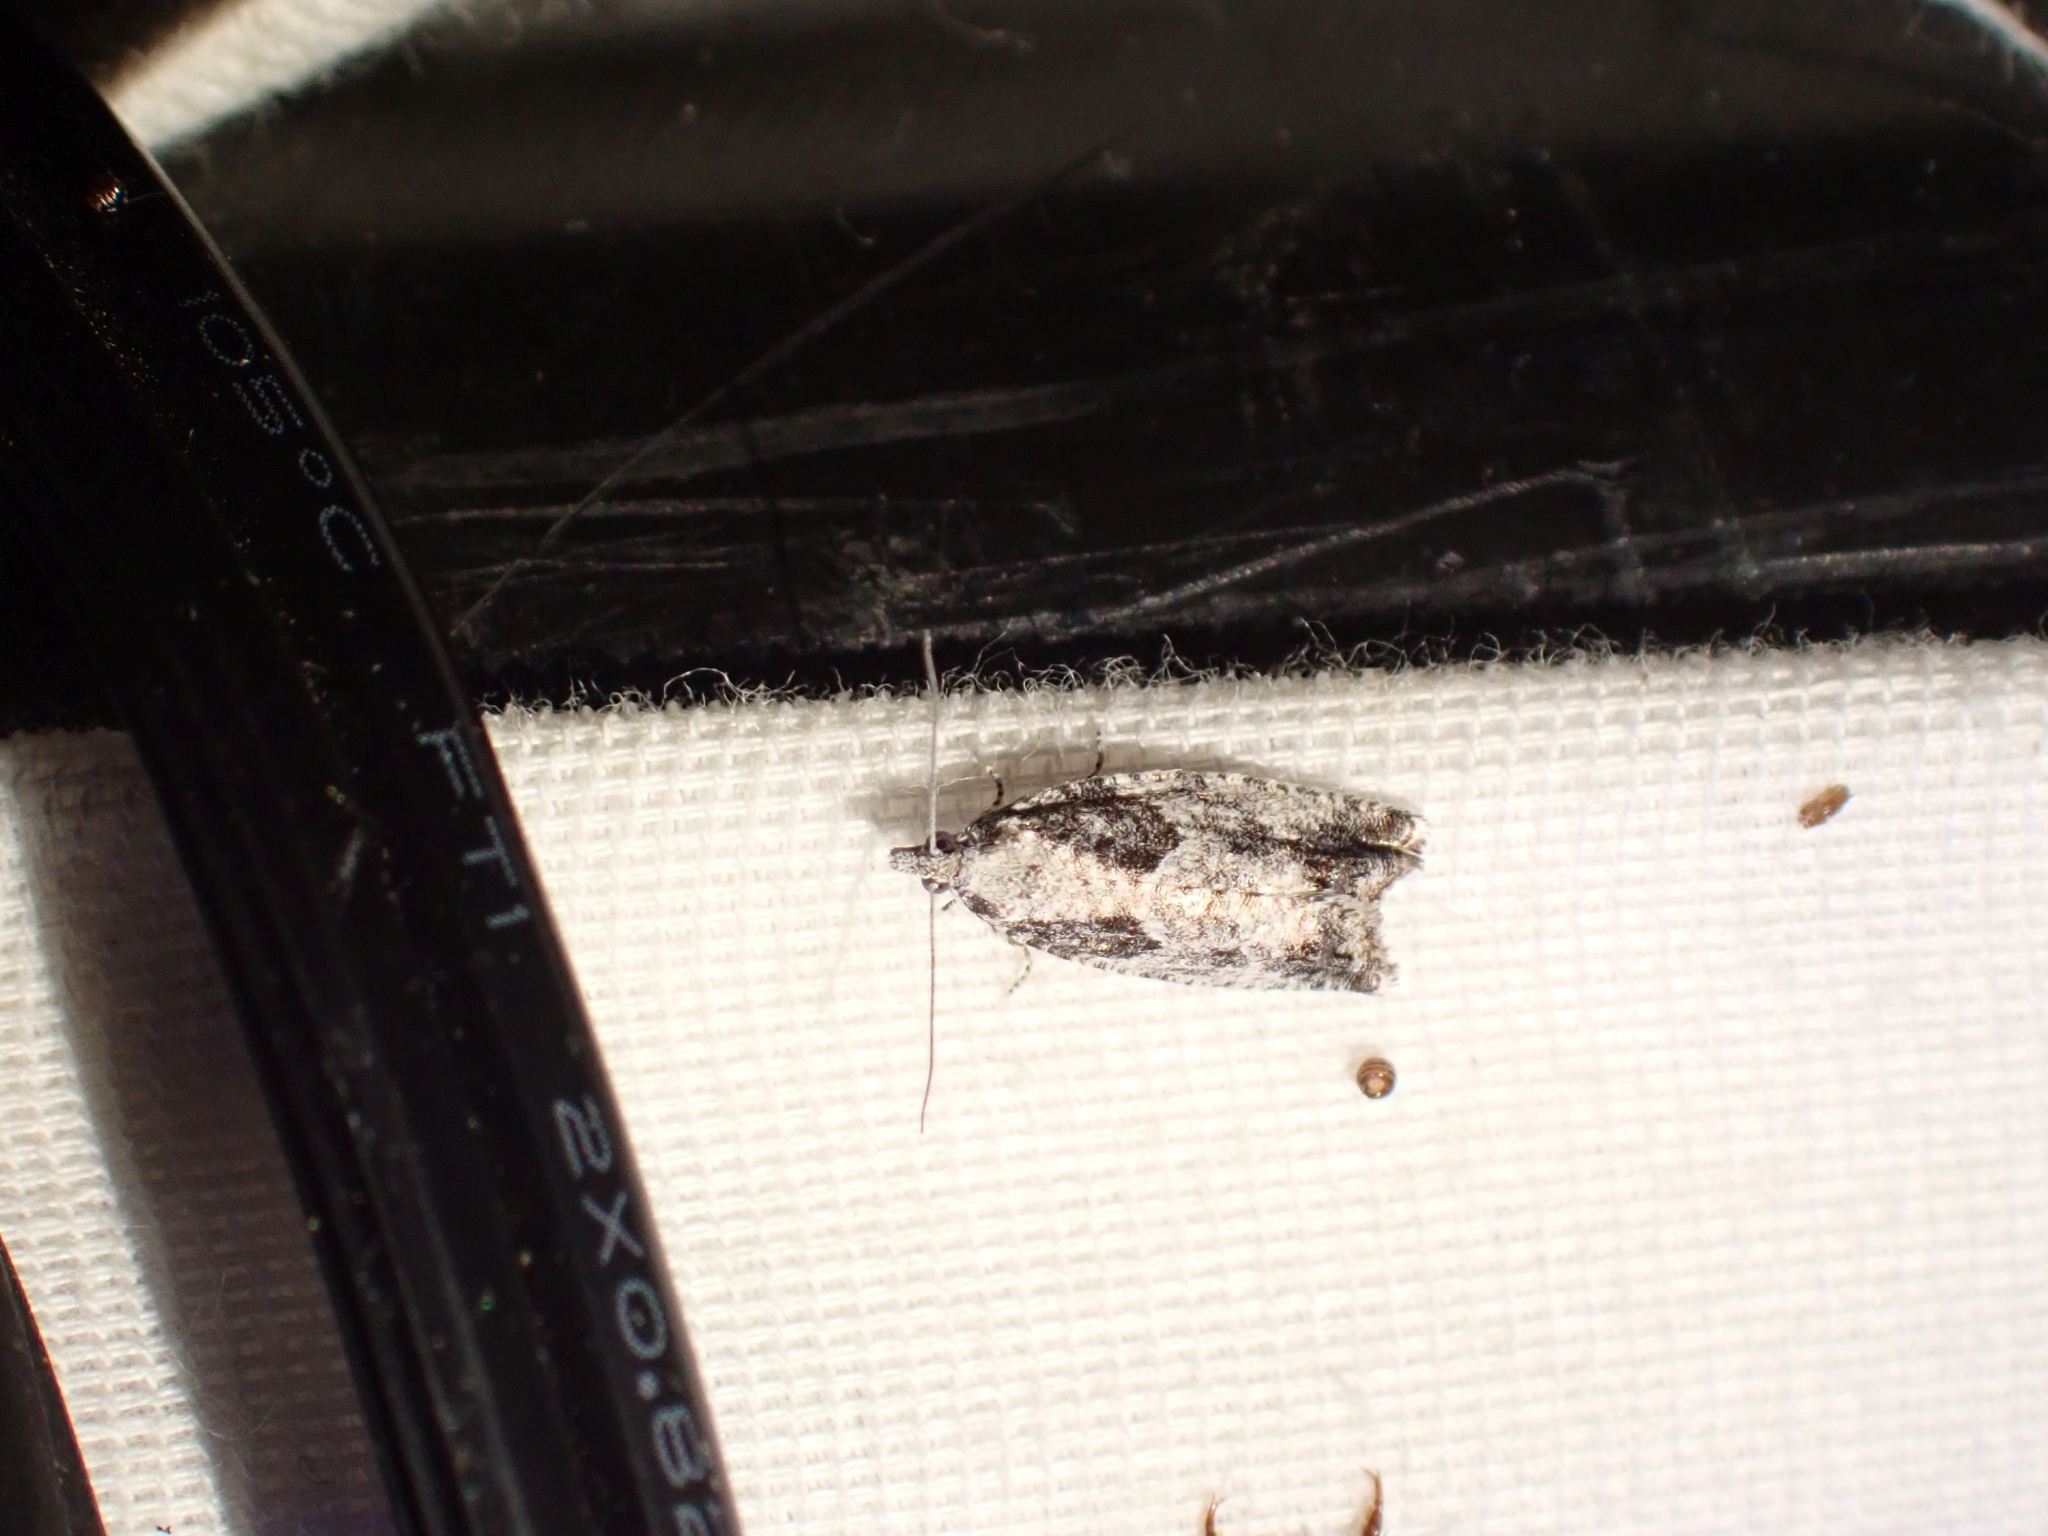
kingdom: Animalia
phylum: Arthropoda
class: Insecta
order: Lepidoptera
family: Tortricidae
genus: Epinotia
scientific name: Epinotia cinereana
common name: Grey aspen bell
